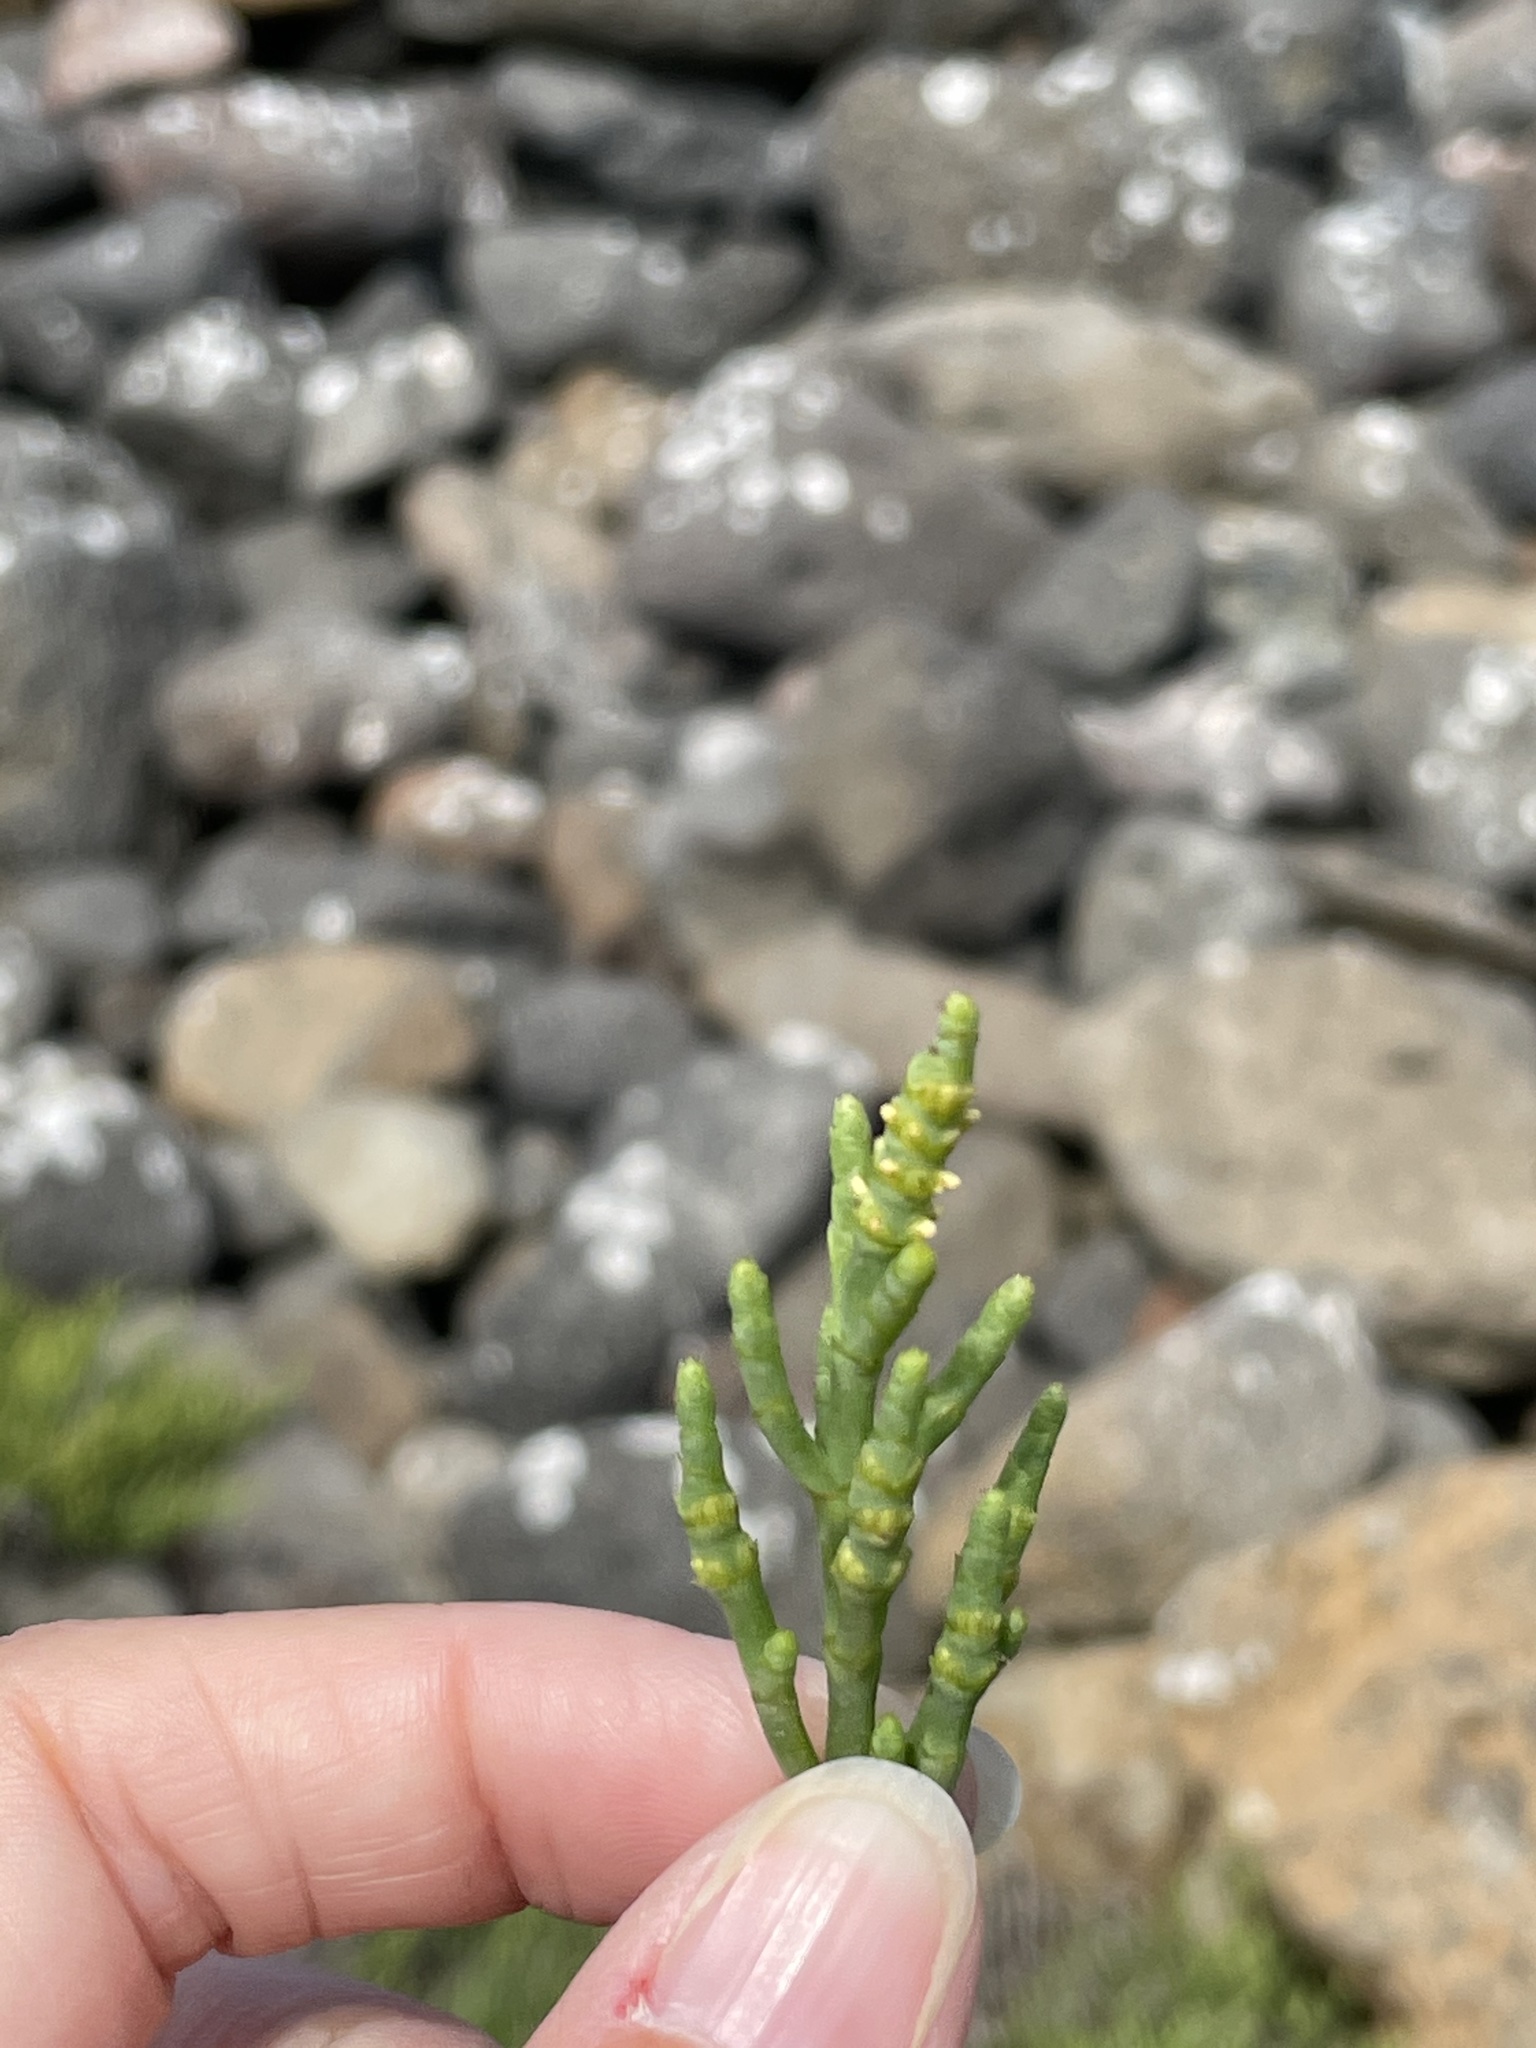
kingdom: Plantae
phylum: Tracheophyta
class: Magnoliopsida
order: Caryophyllales
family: Amaranthaceae
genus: Arthroceras
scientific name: Arthroceras subterminale
